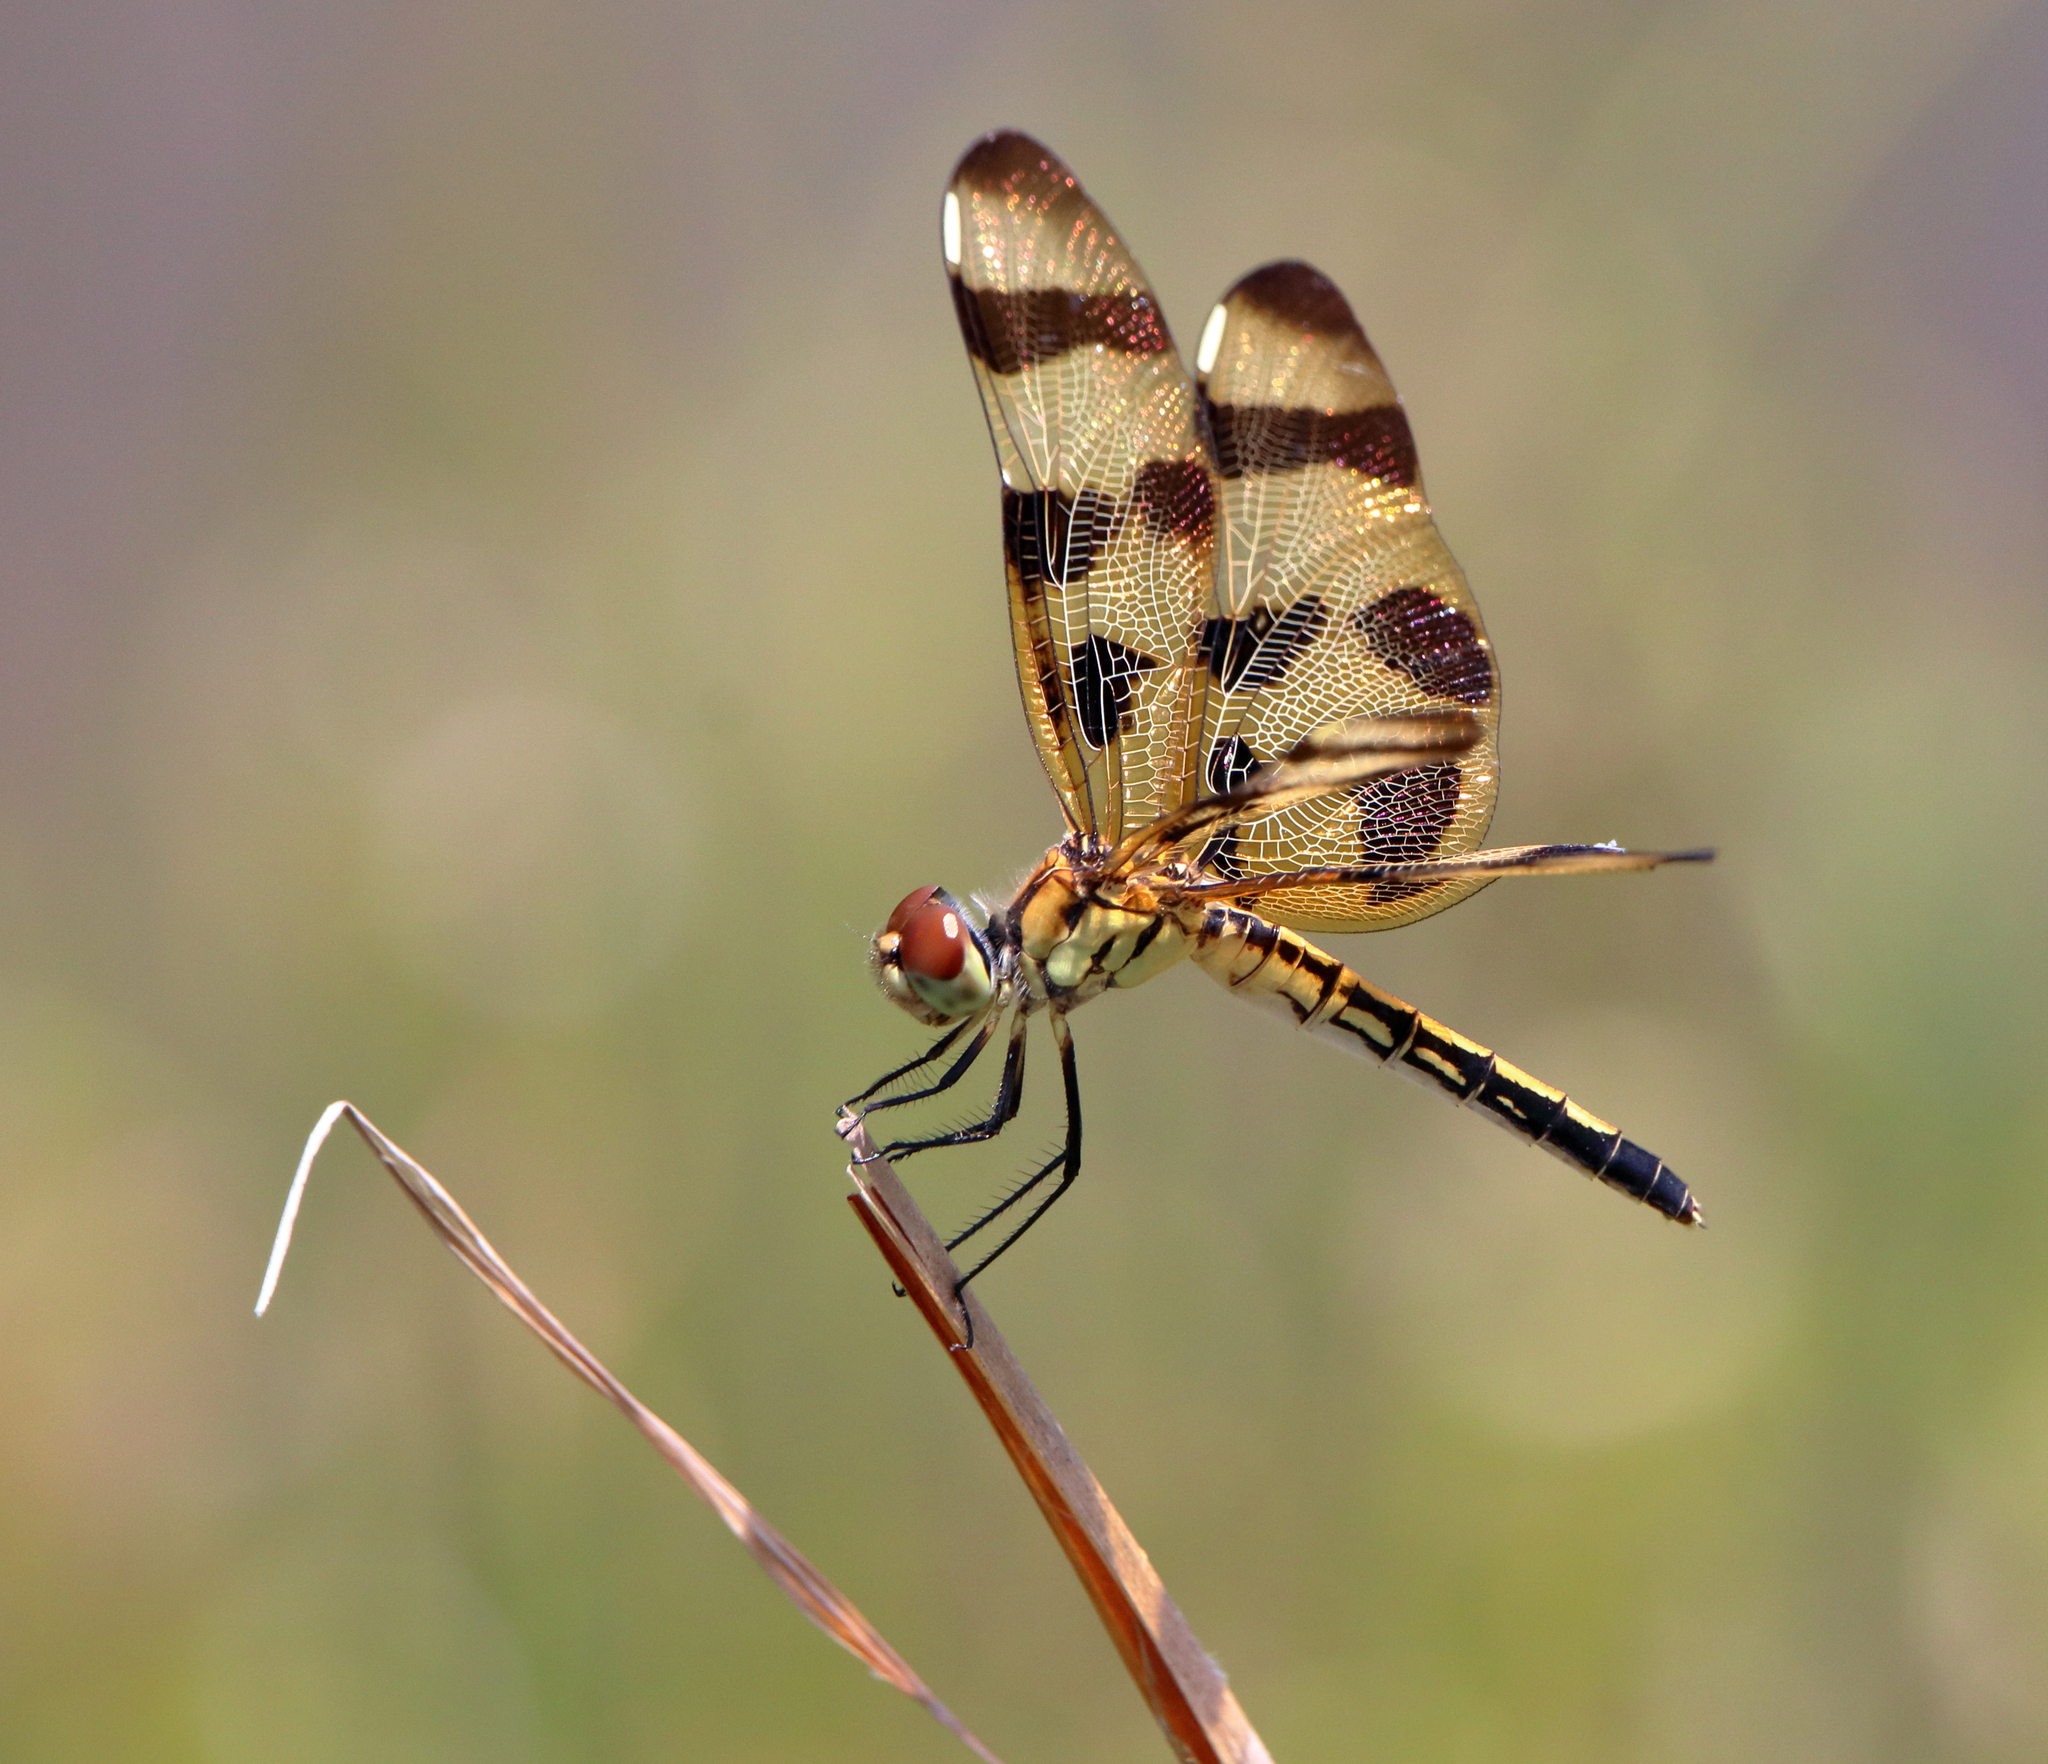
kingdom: Animalia
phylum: Arthropoda
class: Insecta
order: Odonata
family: Libellulidae
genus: Celithemis
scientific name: Celithemis eponina
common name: Halloween pennant
